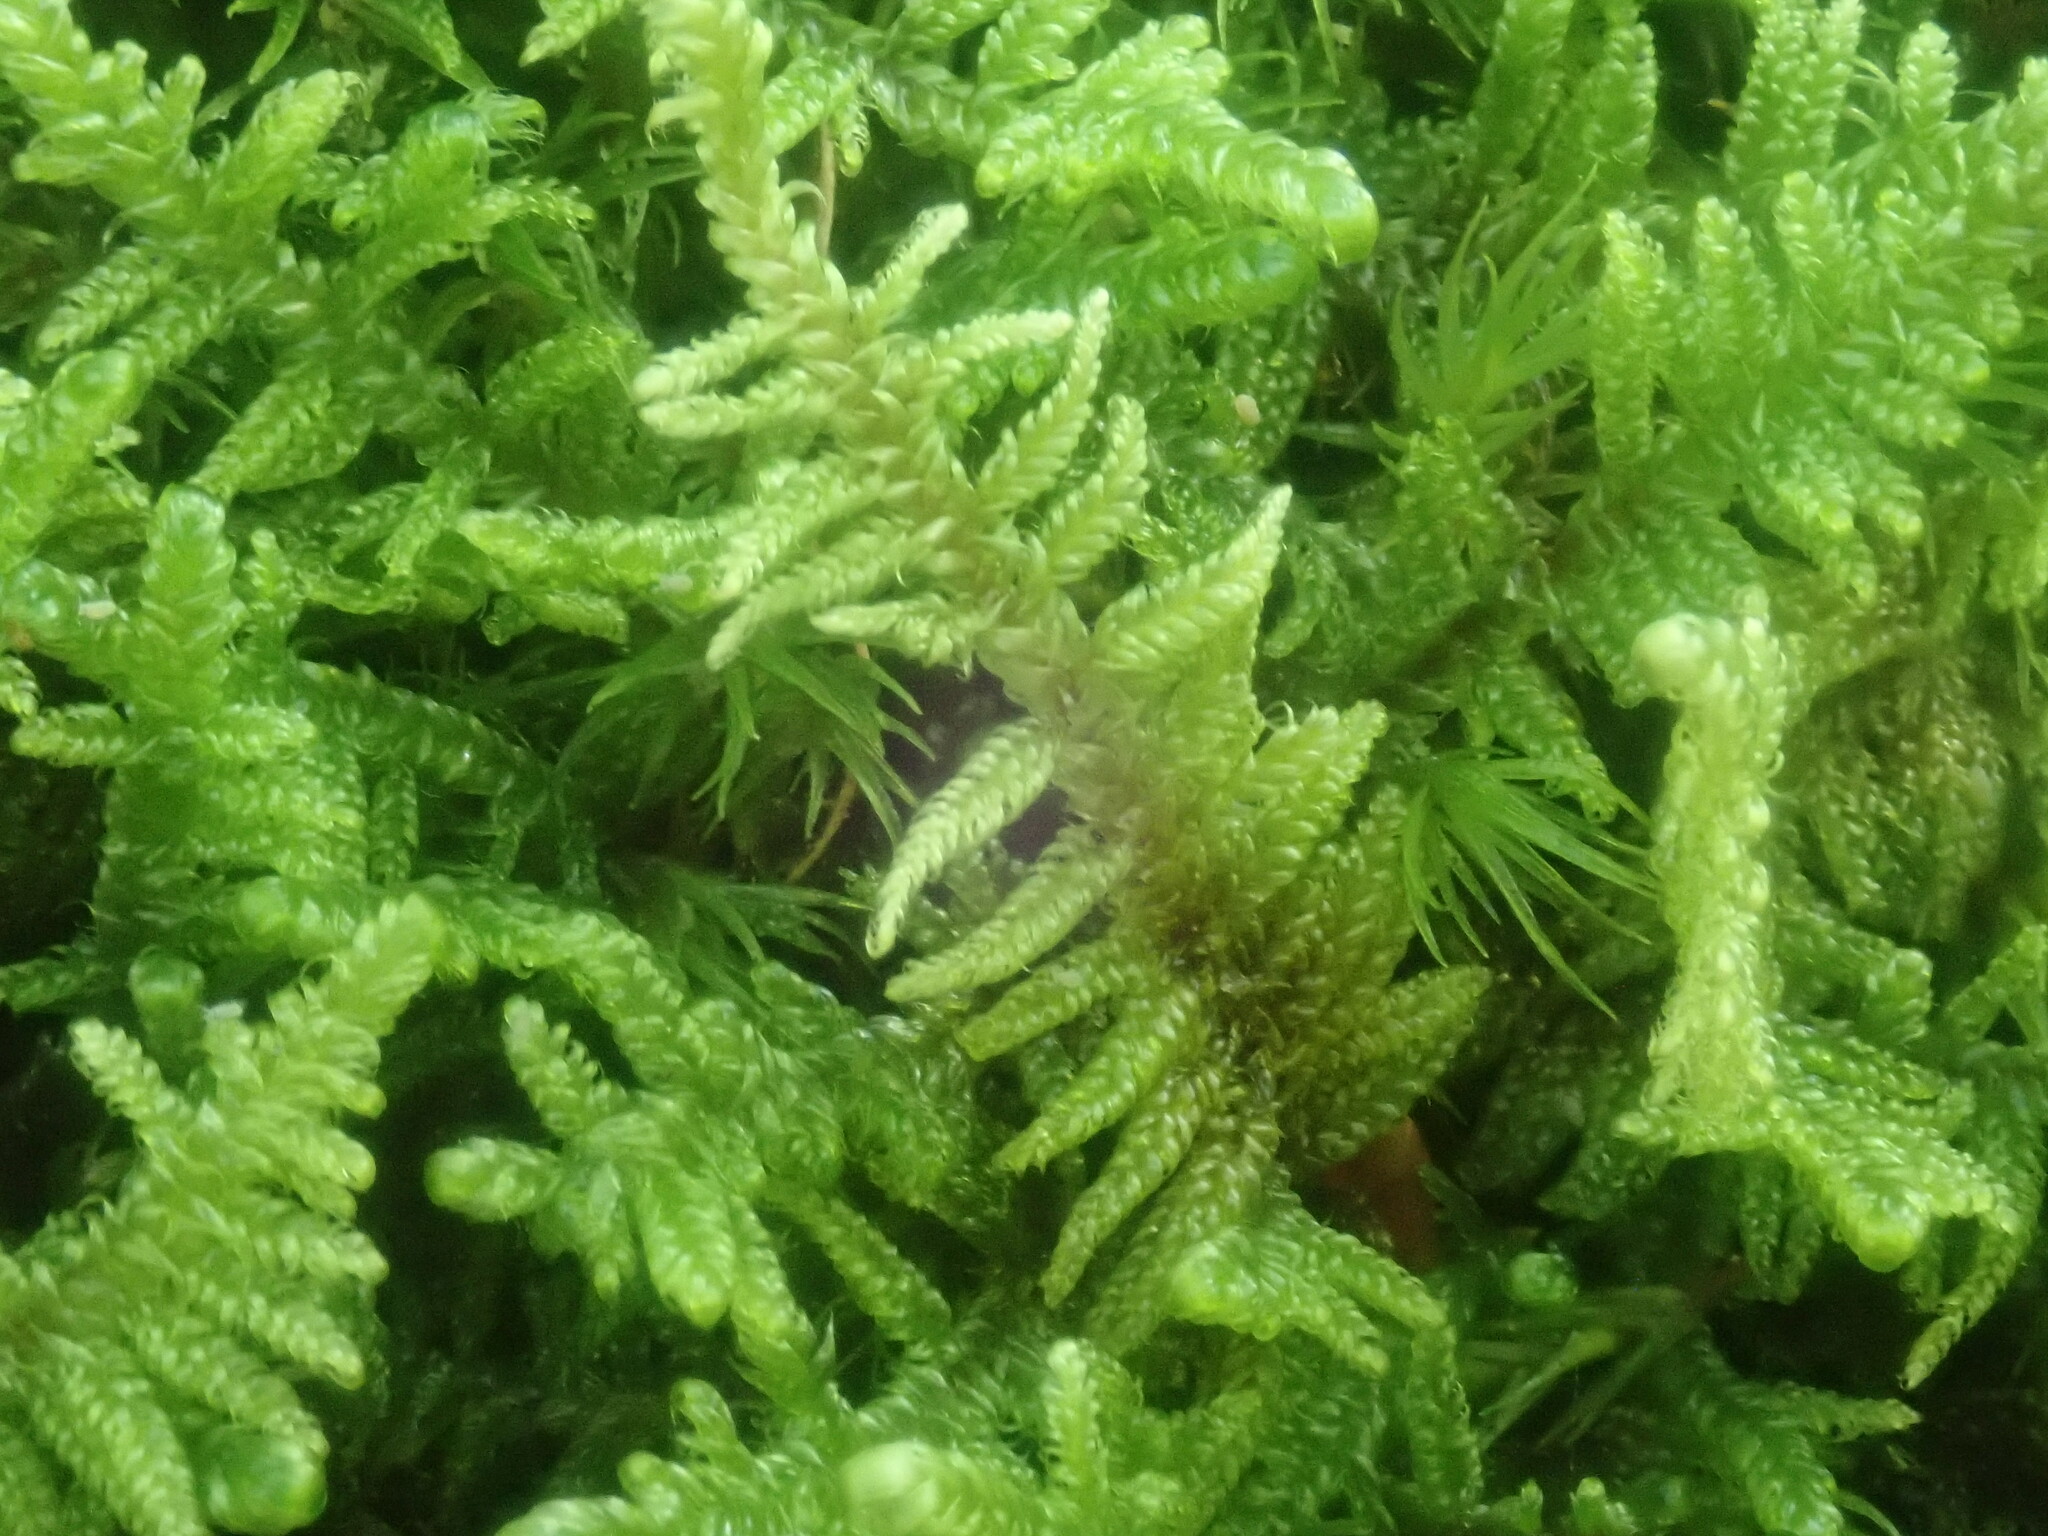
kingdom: Plantae
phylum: Bryophyta
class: Bryopsida
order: Hypnales
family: Callicladiaceae
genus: Callicladium
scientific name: Callicladium imponens
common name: Brocade moss
